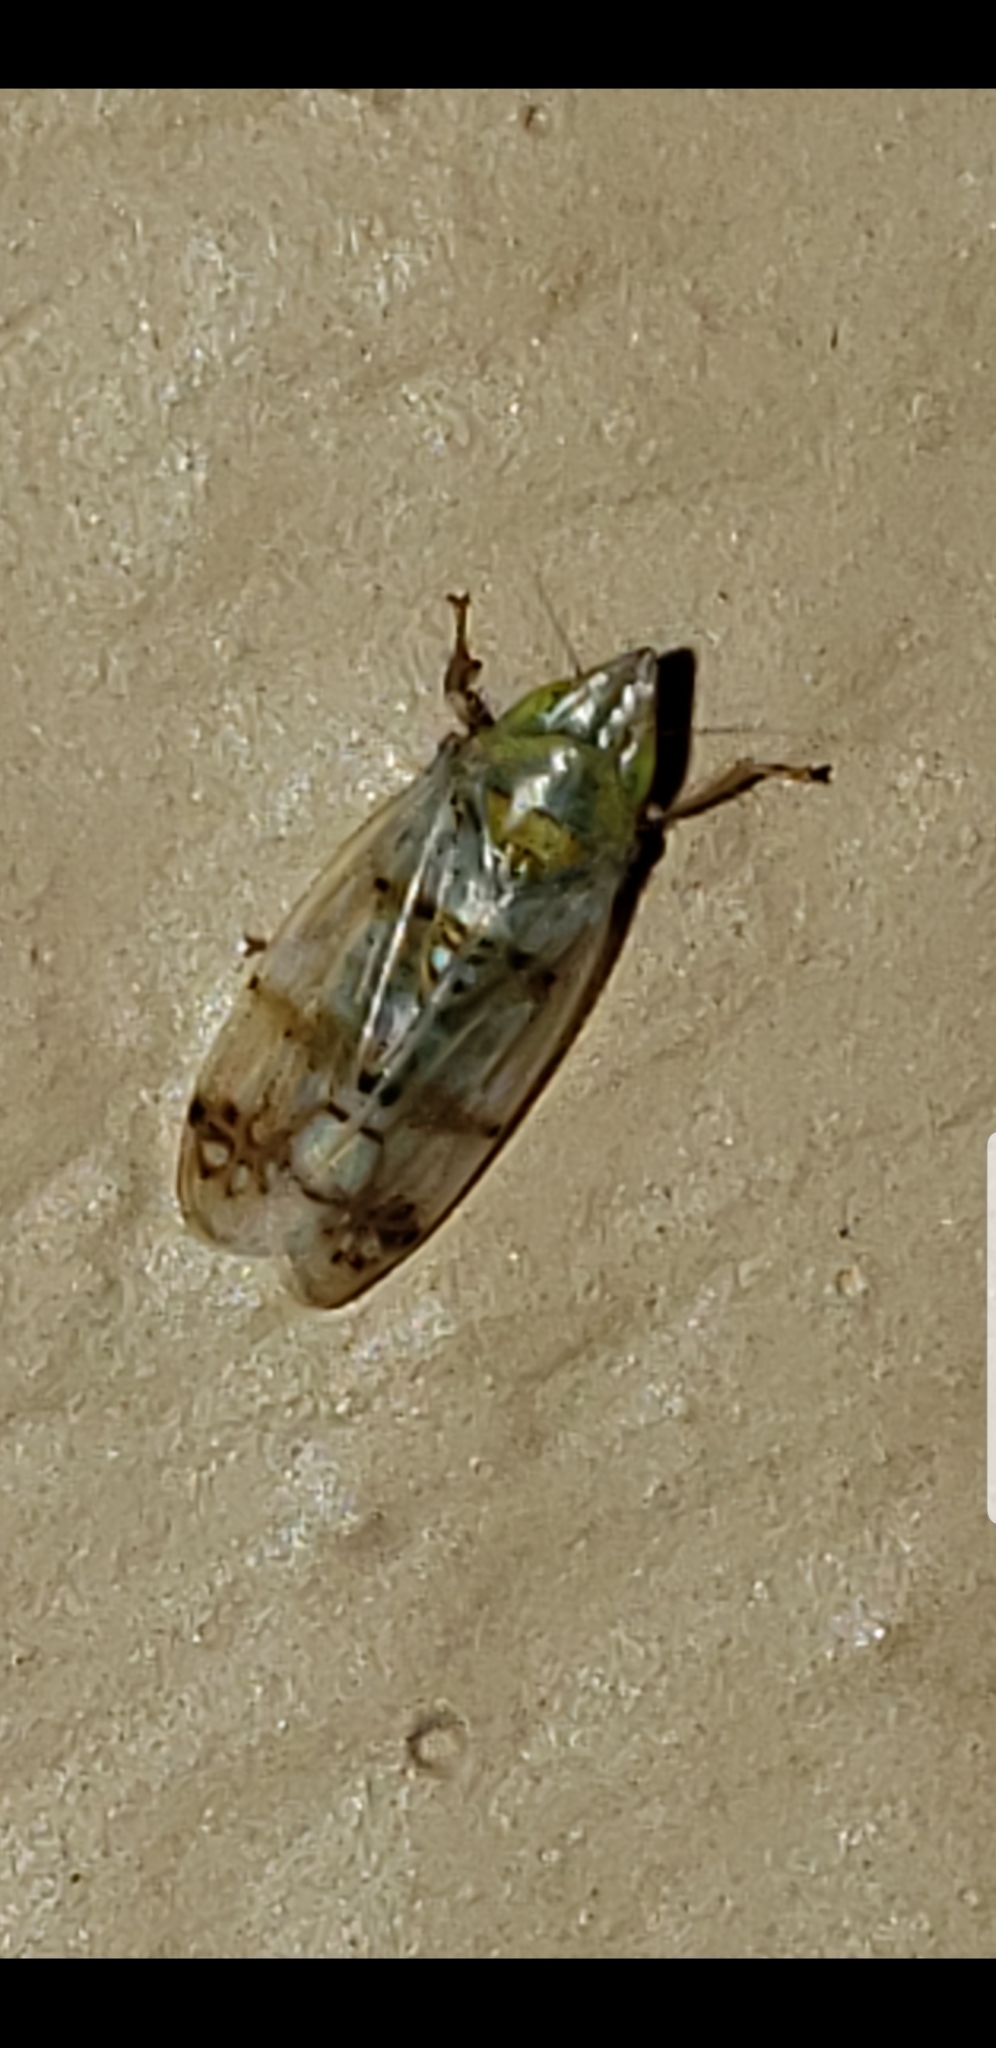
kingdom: Animalia
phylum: Arthropoda
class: Insecta
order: Hemiptera
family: Cicadellidae
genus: Japananus
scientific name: Japananus hyalinus
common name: The japanese maple leafhopper
